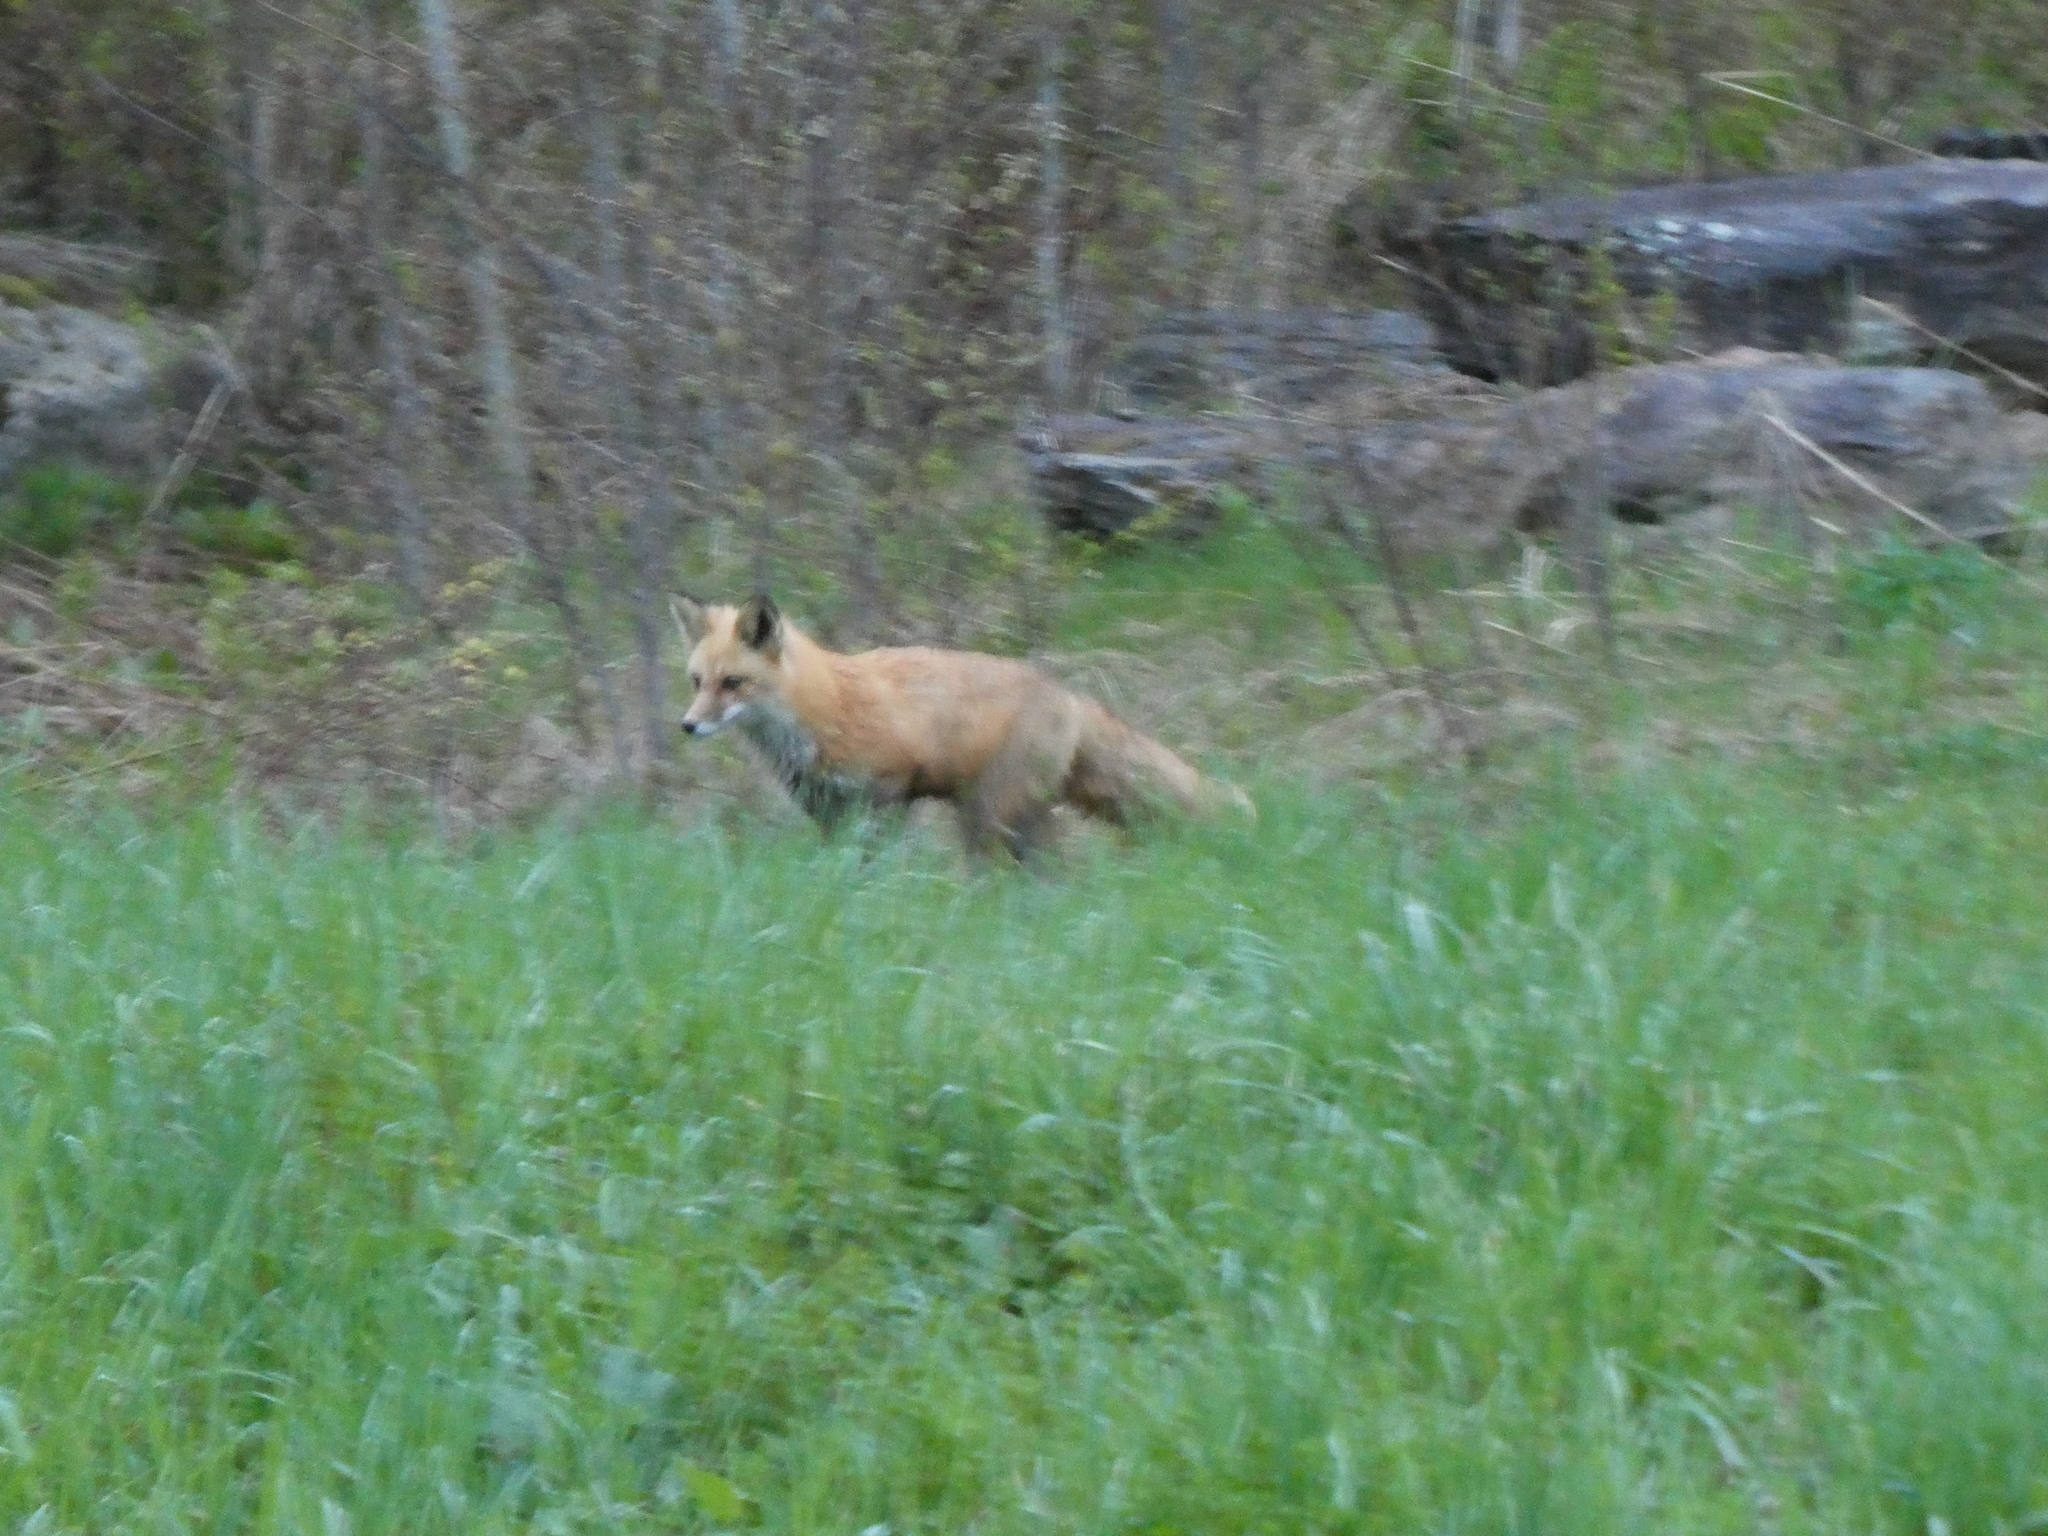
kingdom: Animalia
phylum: Chordata
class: Mammalia
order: Carnivora
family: Canidae
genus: Vulpes
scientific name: Vulpes vulpes
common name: Red fox
